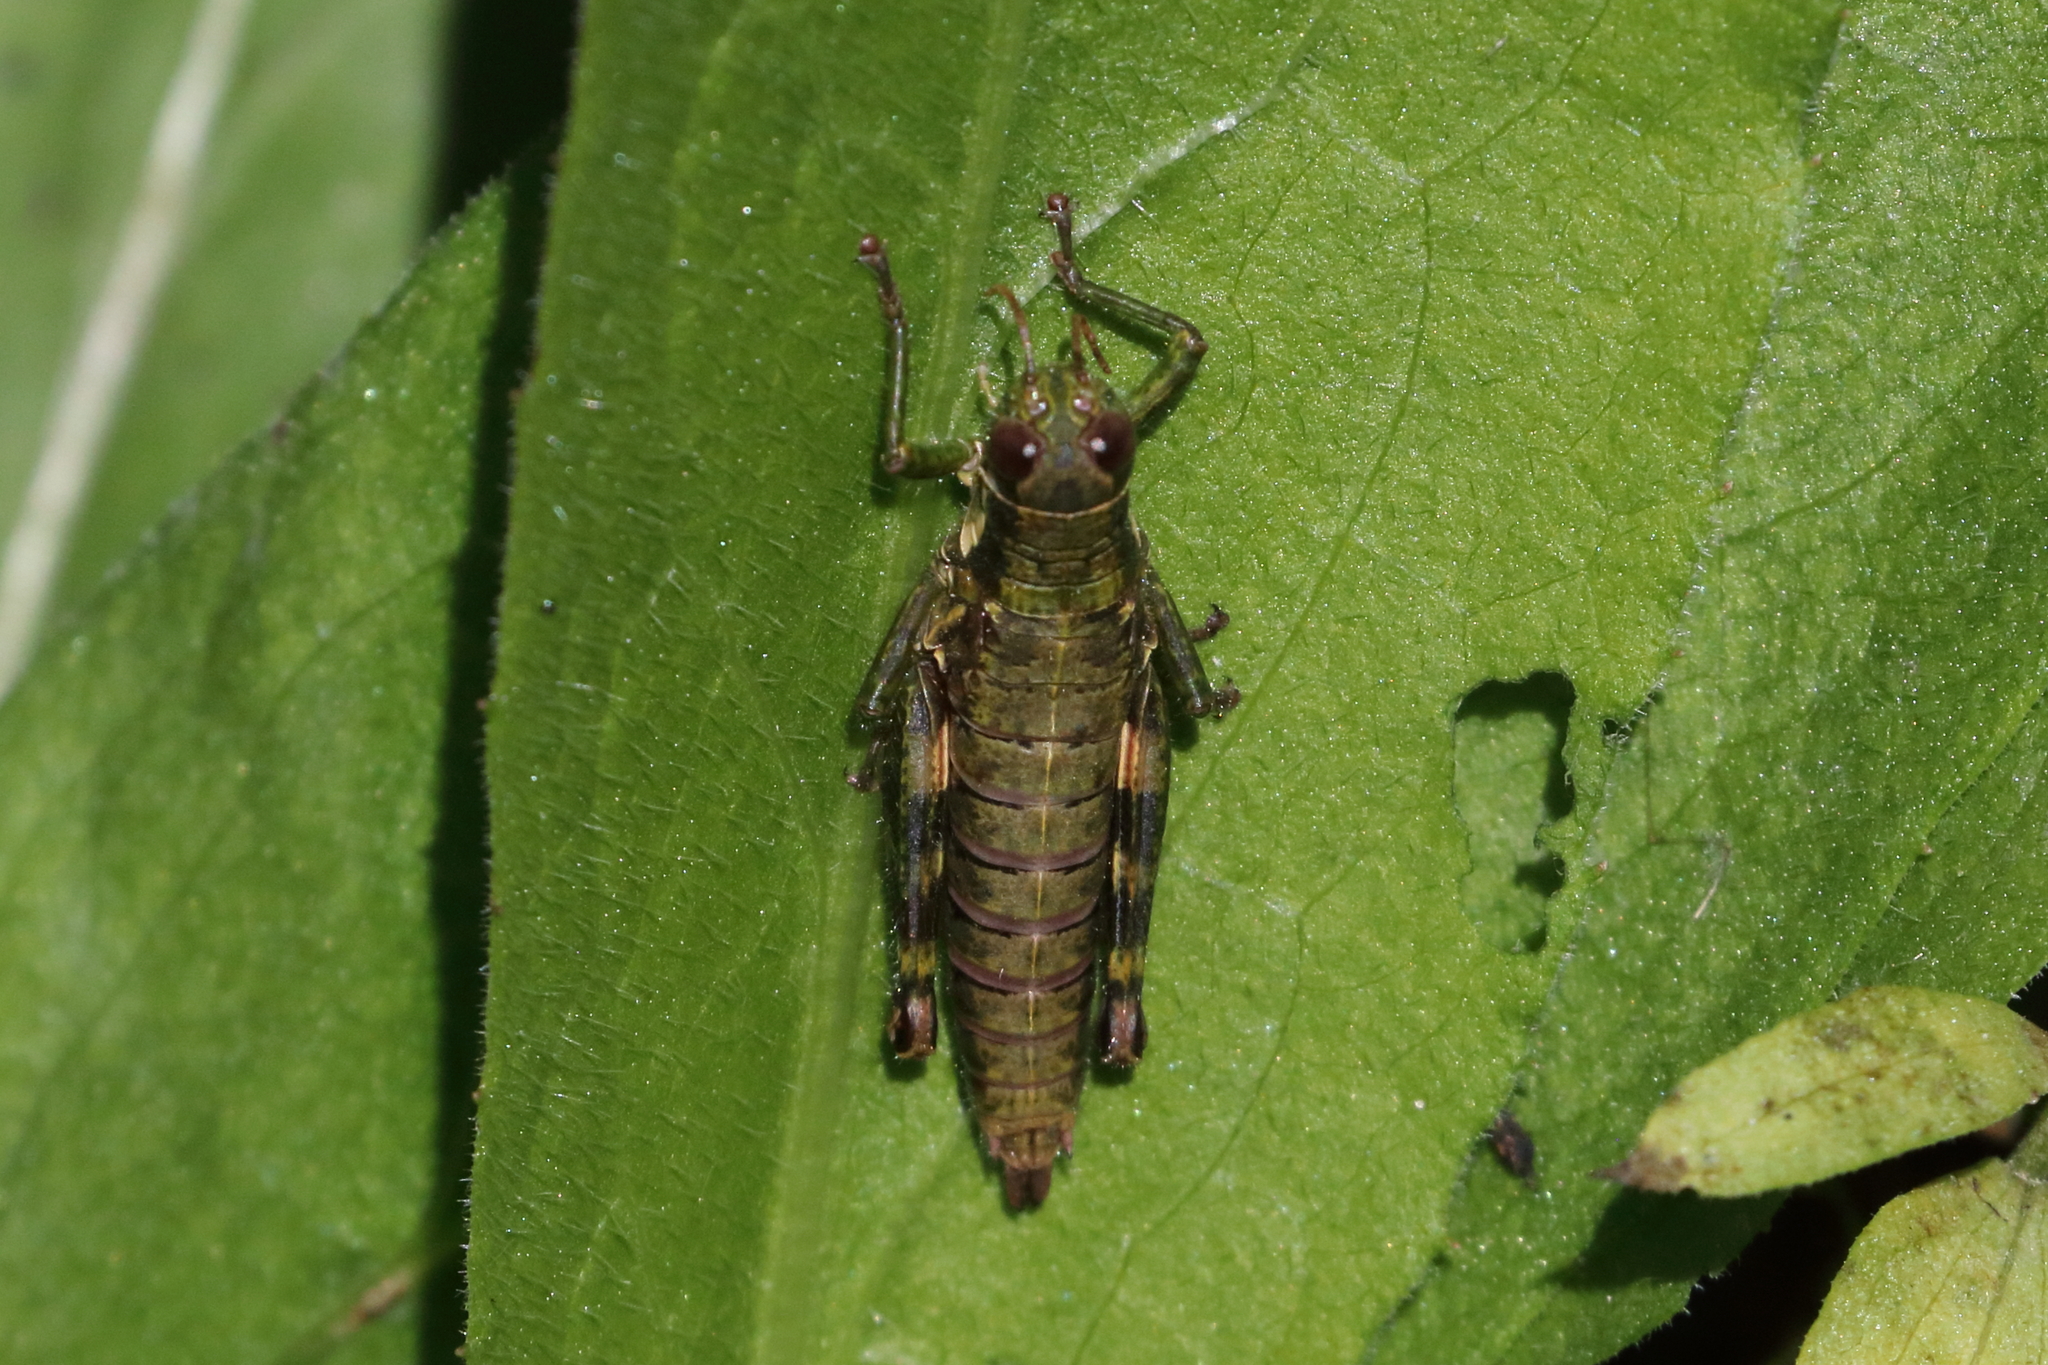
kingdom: Animalia
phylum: Arthropoda
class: Insecta
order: Orthoptera
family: Acrididae
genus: Booneacris
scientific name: Booneacris glacialis
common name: Wingless mountain grasshopper
